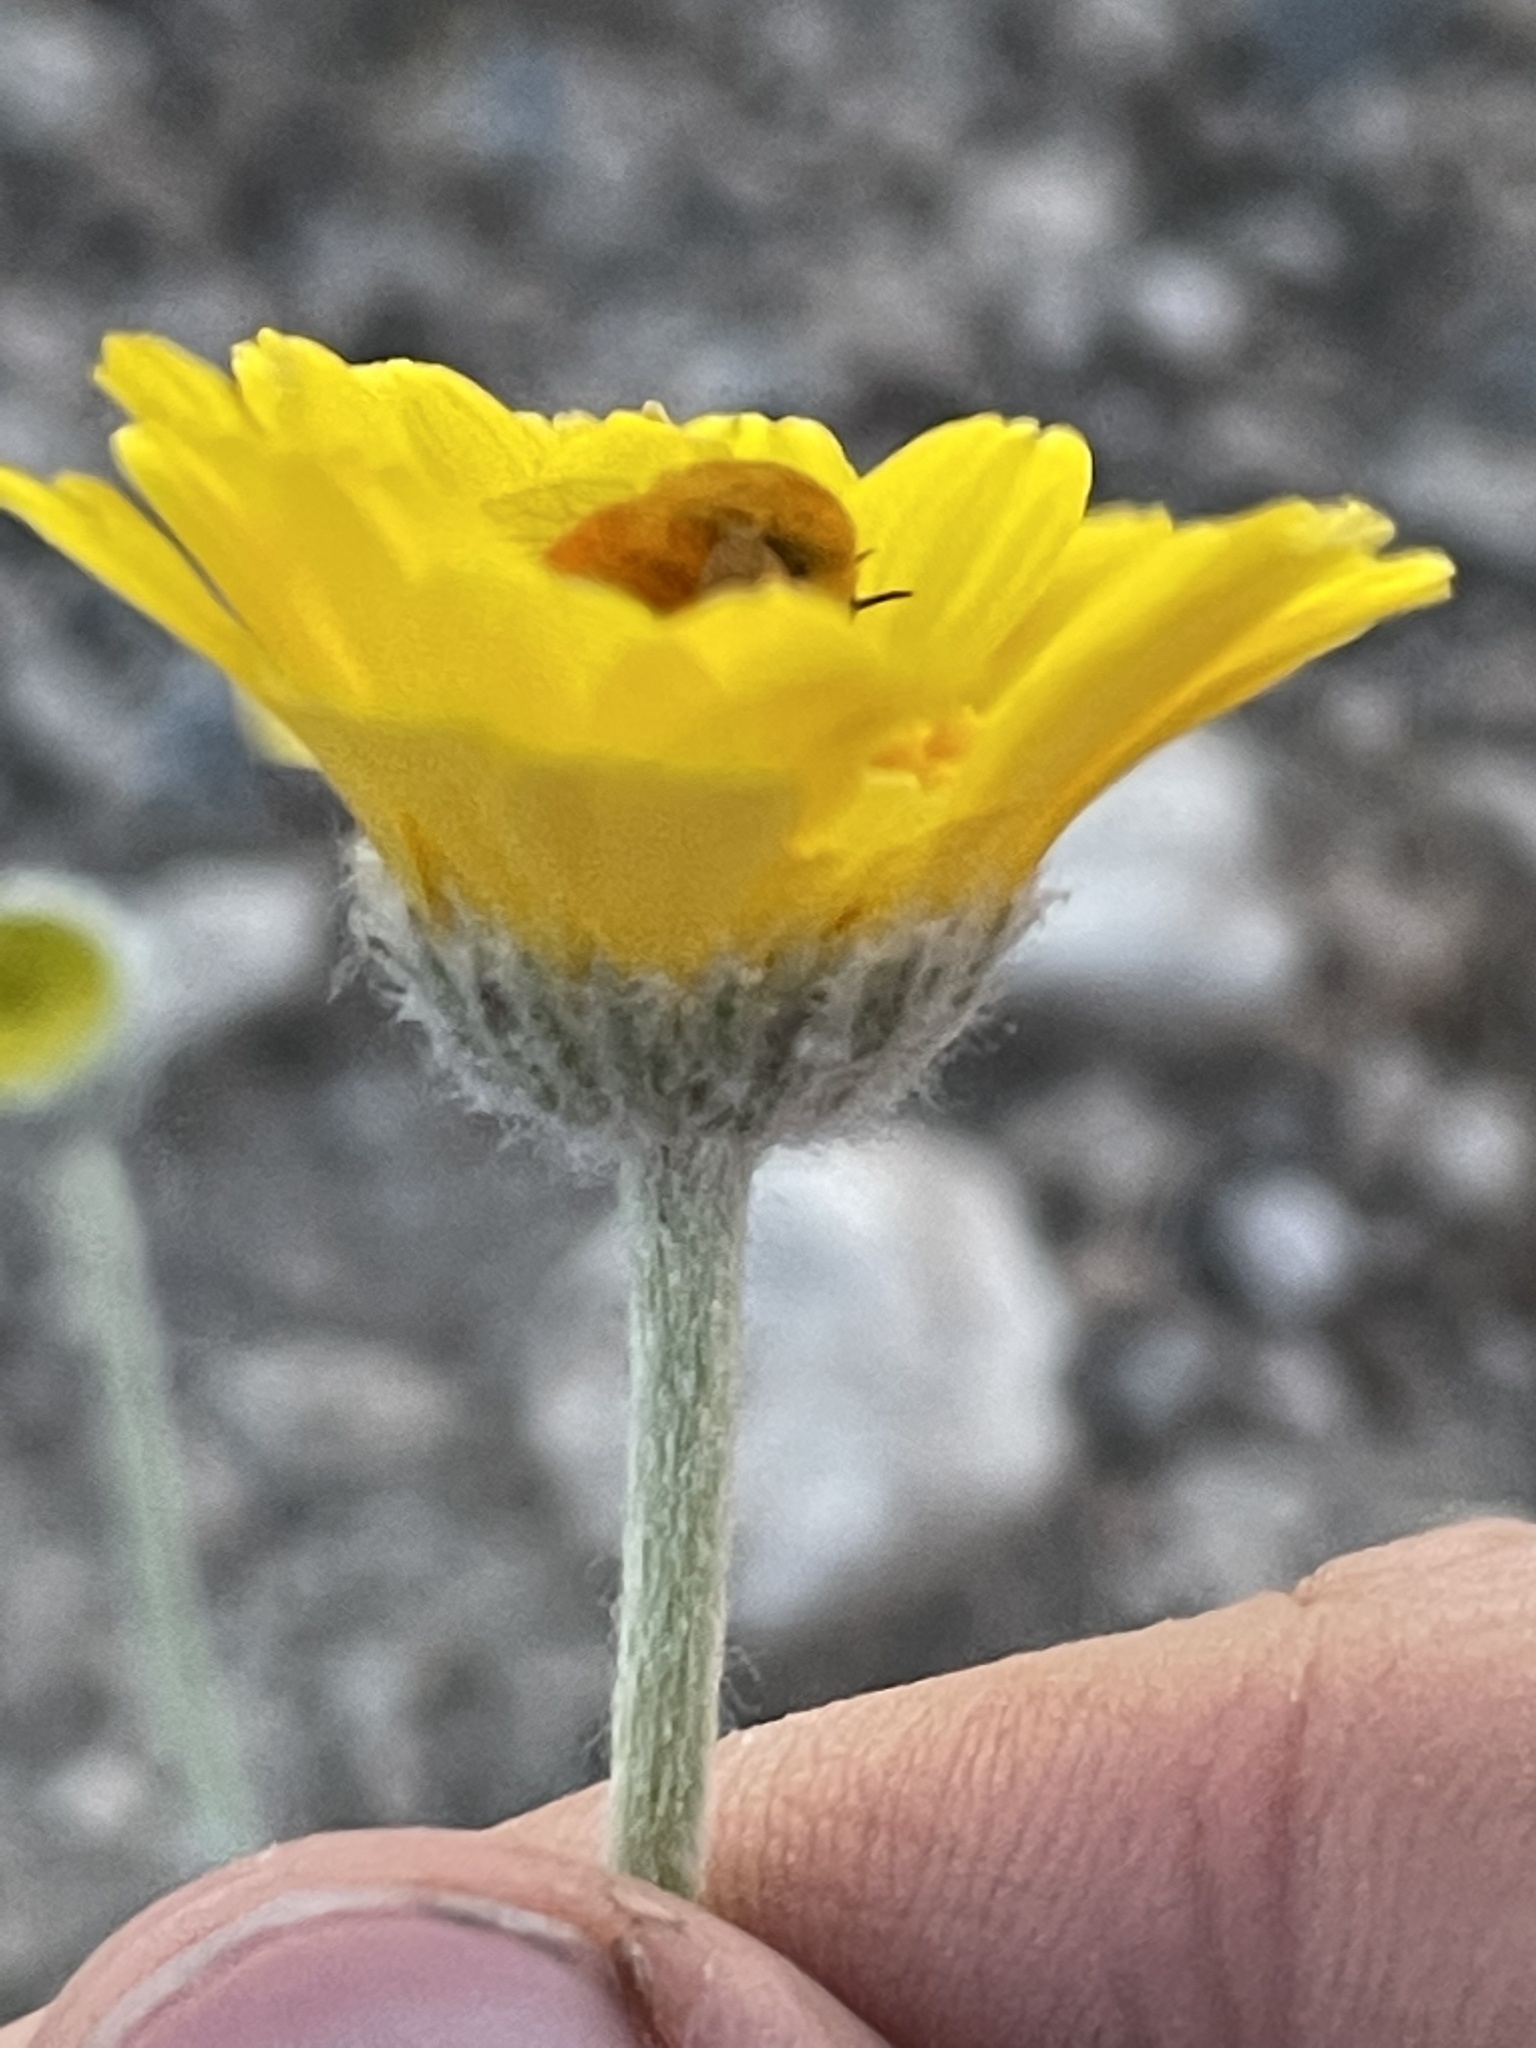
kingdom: Plantae
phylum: Tracheophyta
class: Magnoliopsida
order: Asterales
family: Asteraceae
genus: Baileya
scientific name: Baileya multiradiata
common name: Desert-marigold
